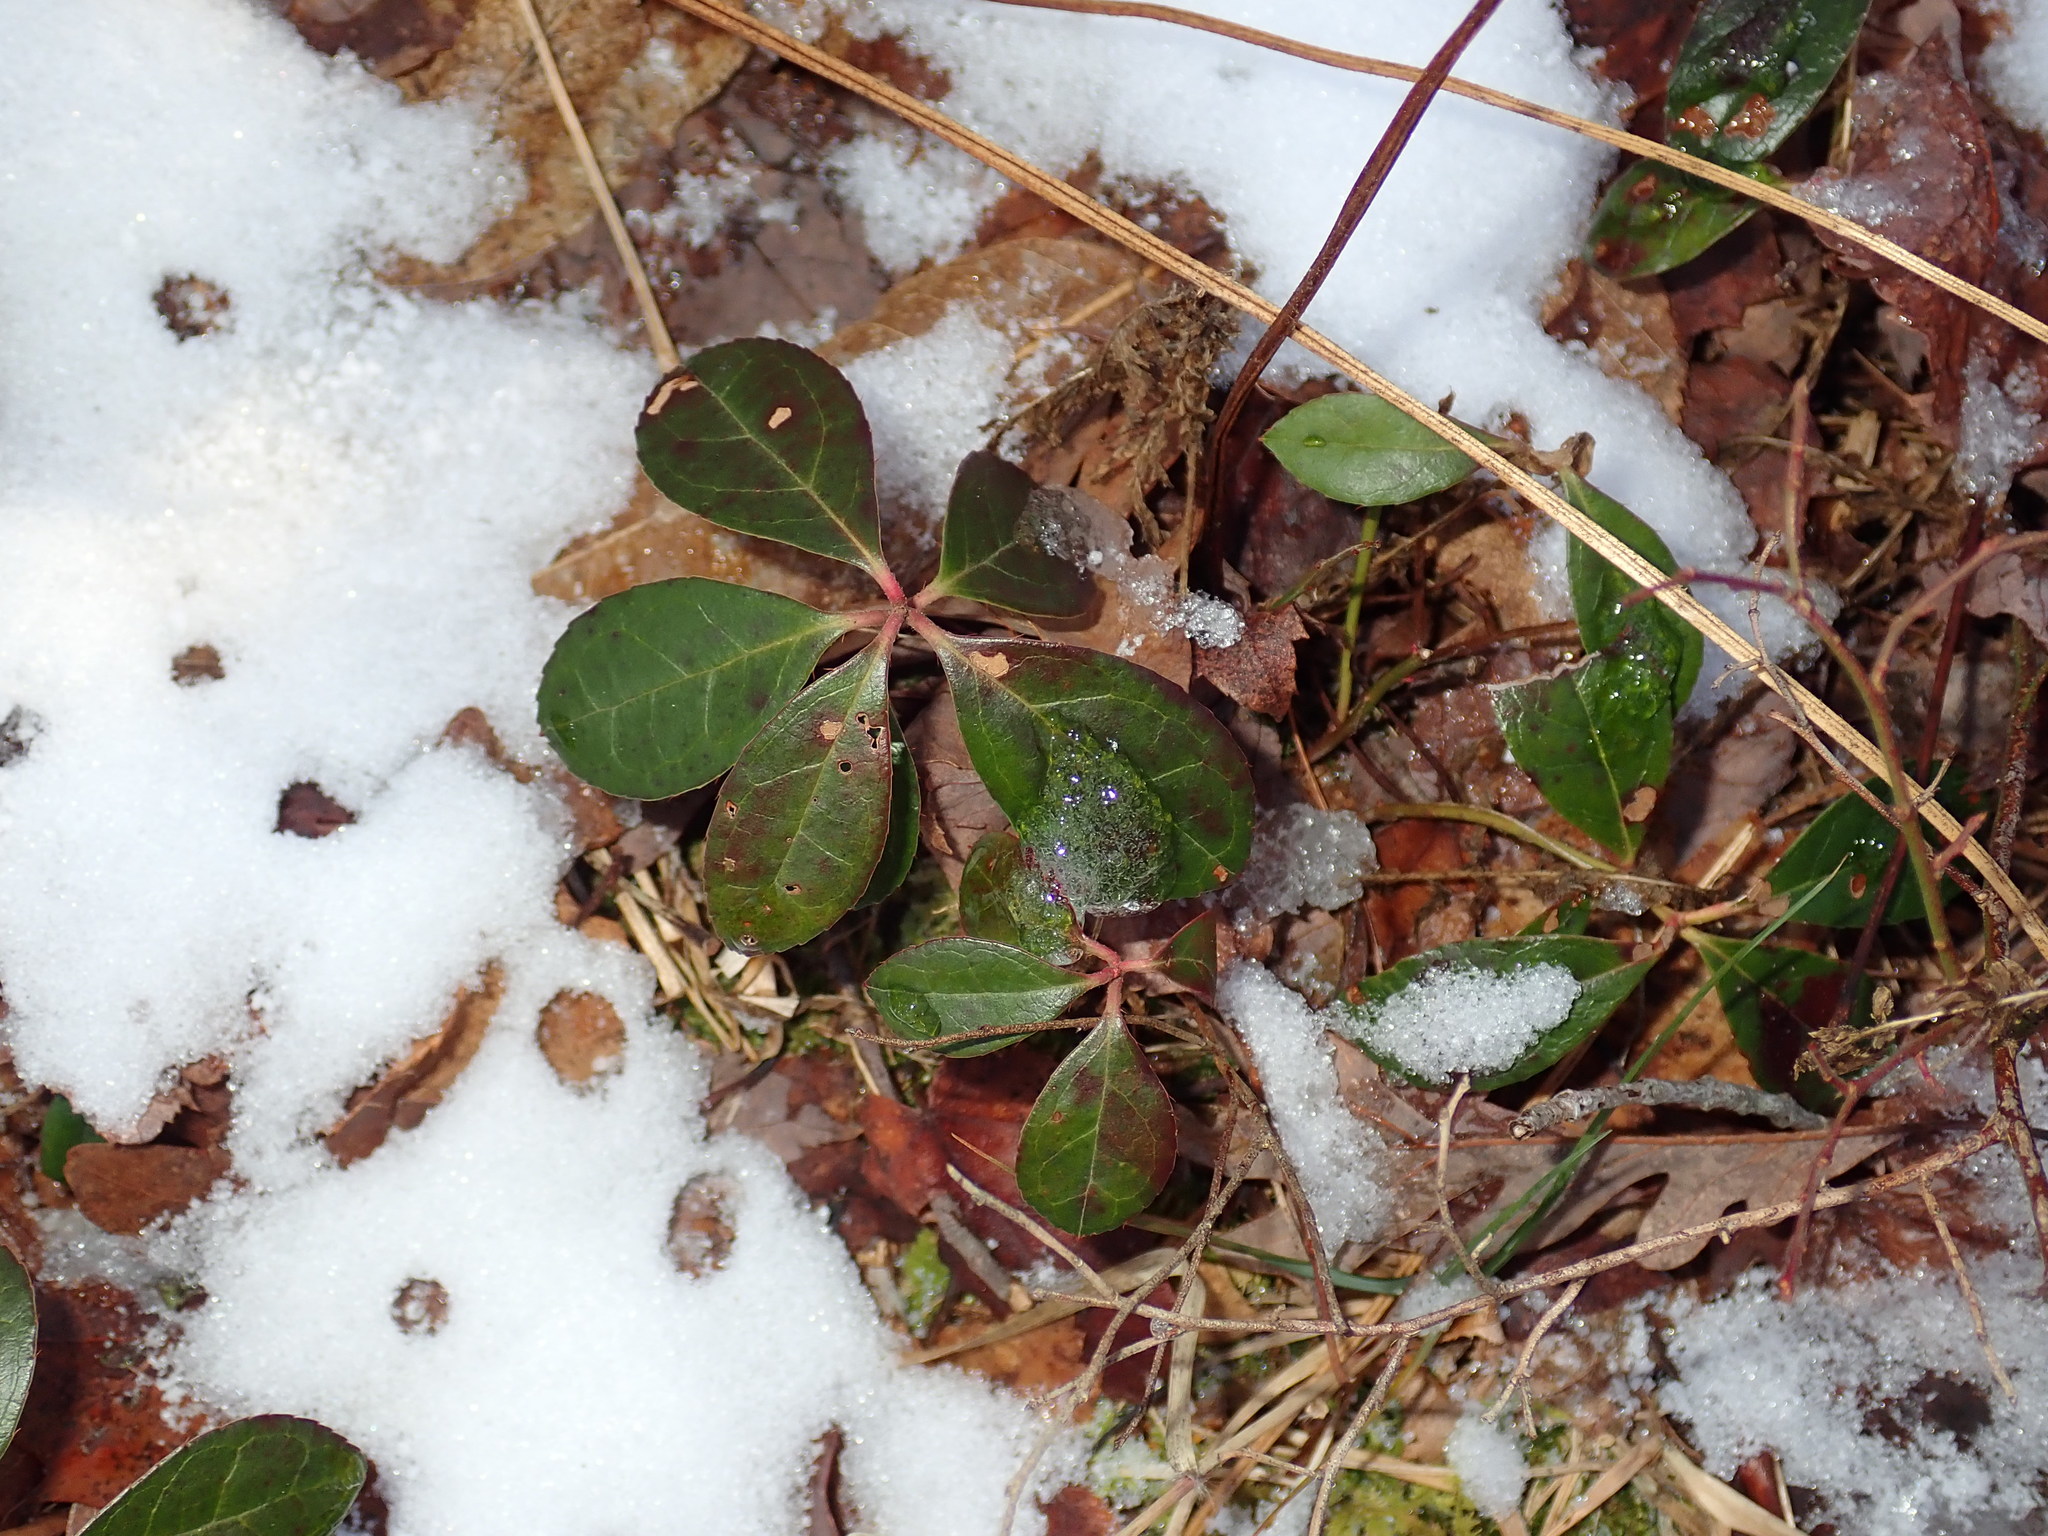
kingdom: Plantae
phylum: Tracheophyta
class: Magnoliopsida
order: Ericales
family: Ericaceae
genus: Gaultheria
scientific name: Gaultheria procumbens
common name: Checkerberry
